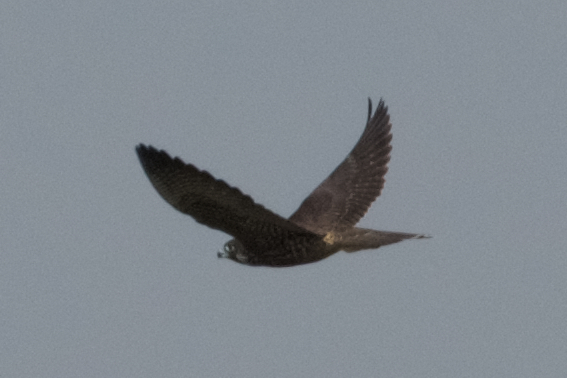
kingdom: Animalia
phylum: Chordata
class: Aves
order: Falconiformes
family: Falconidae
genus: Falco
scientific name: Falco peregrinus
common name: Peregrine falcon
